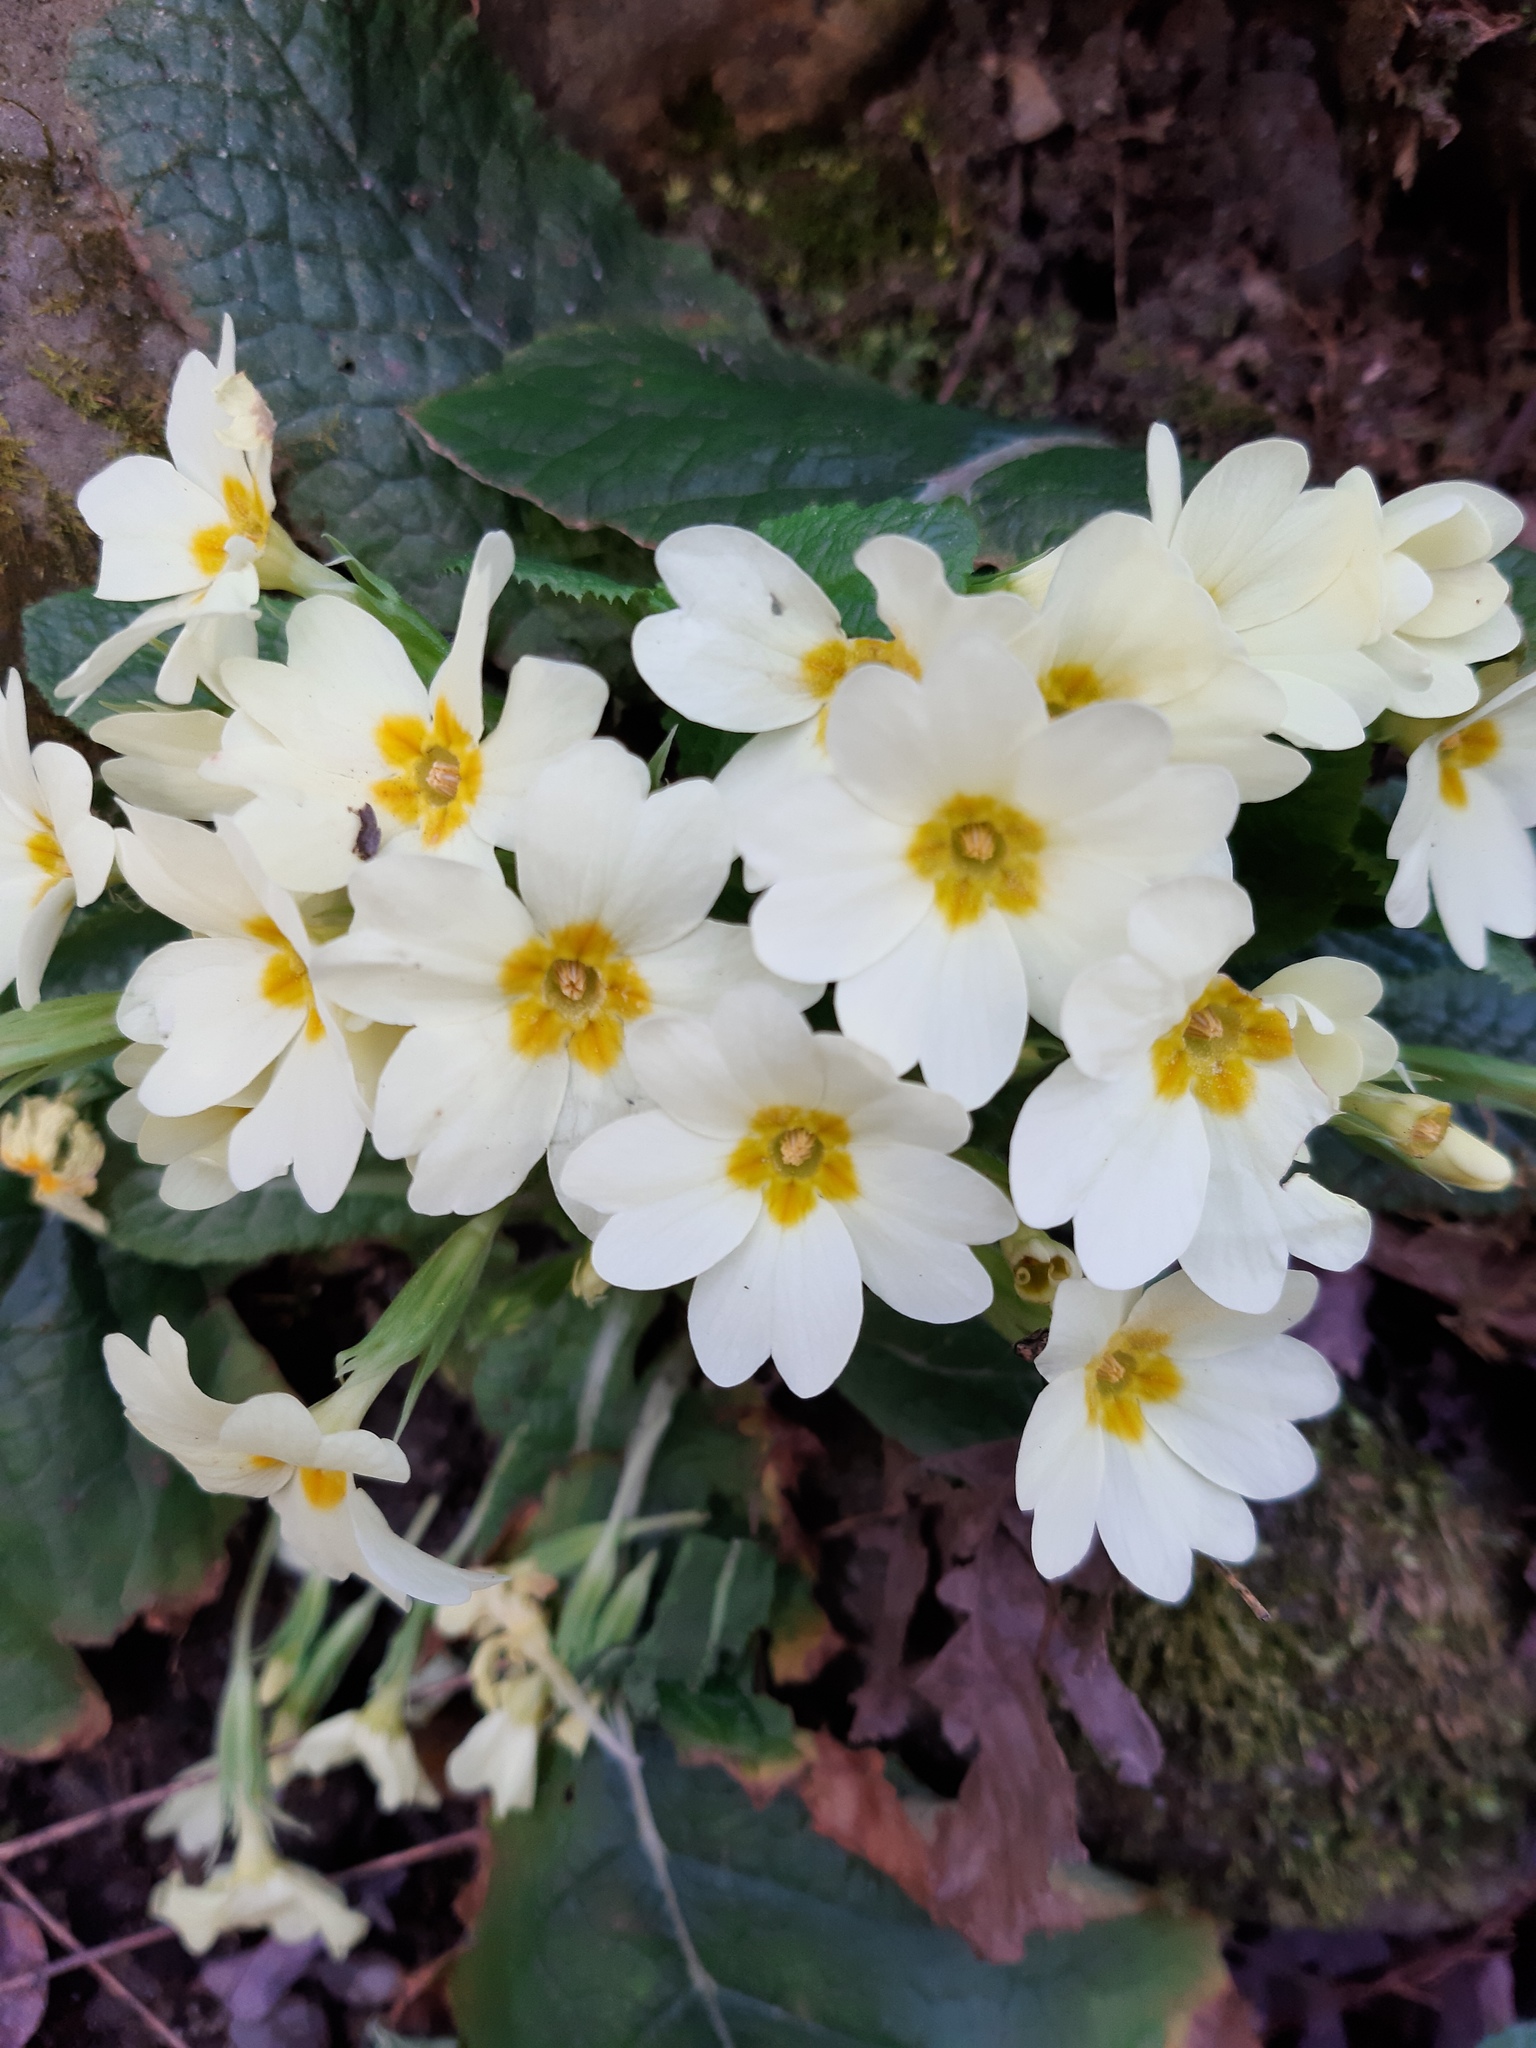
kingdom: Plantae
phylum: Tracheophyta
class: Magnoliopsida
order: Ericales
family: Primulaceae
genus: Primula
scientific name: Primula vulgaris
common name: Primrose
